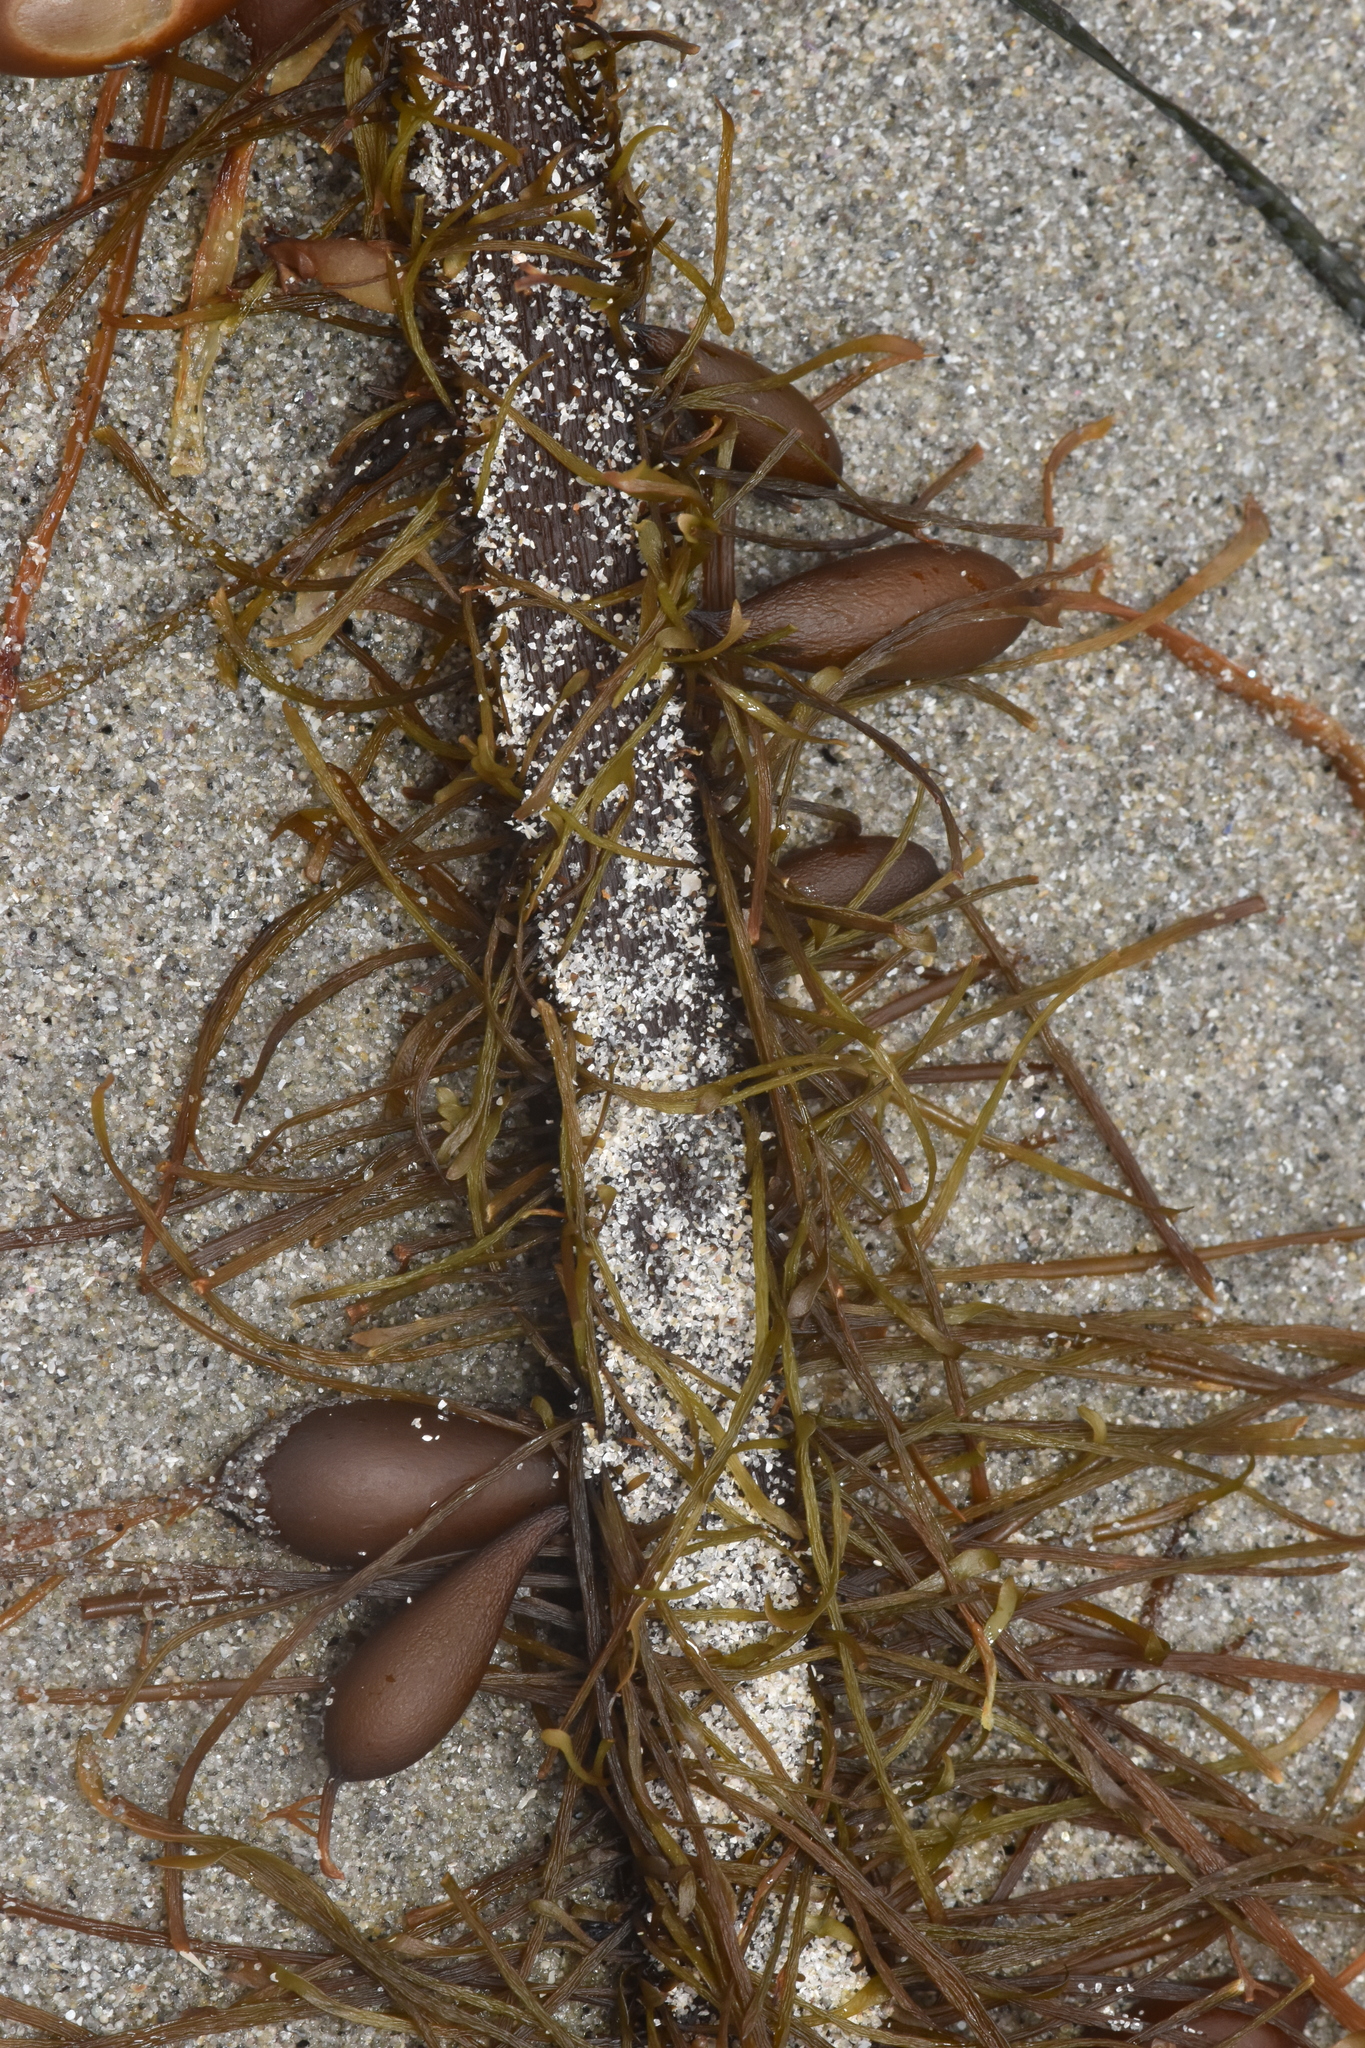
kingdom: Chromista
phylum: Ochrophyta
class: Phaeophyceae
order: Laminariales
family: Lessoniaceae
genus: Egregia
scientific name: Egregia menziesii
